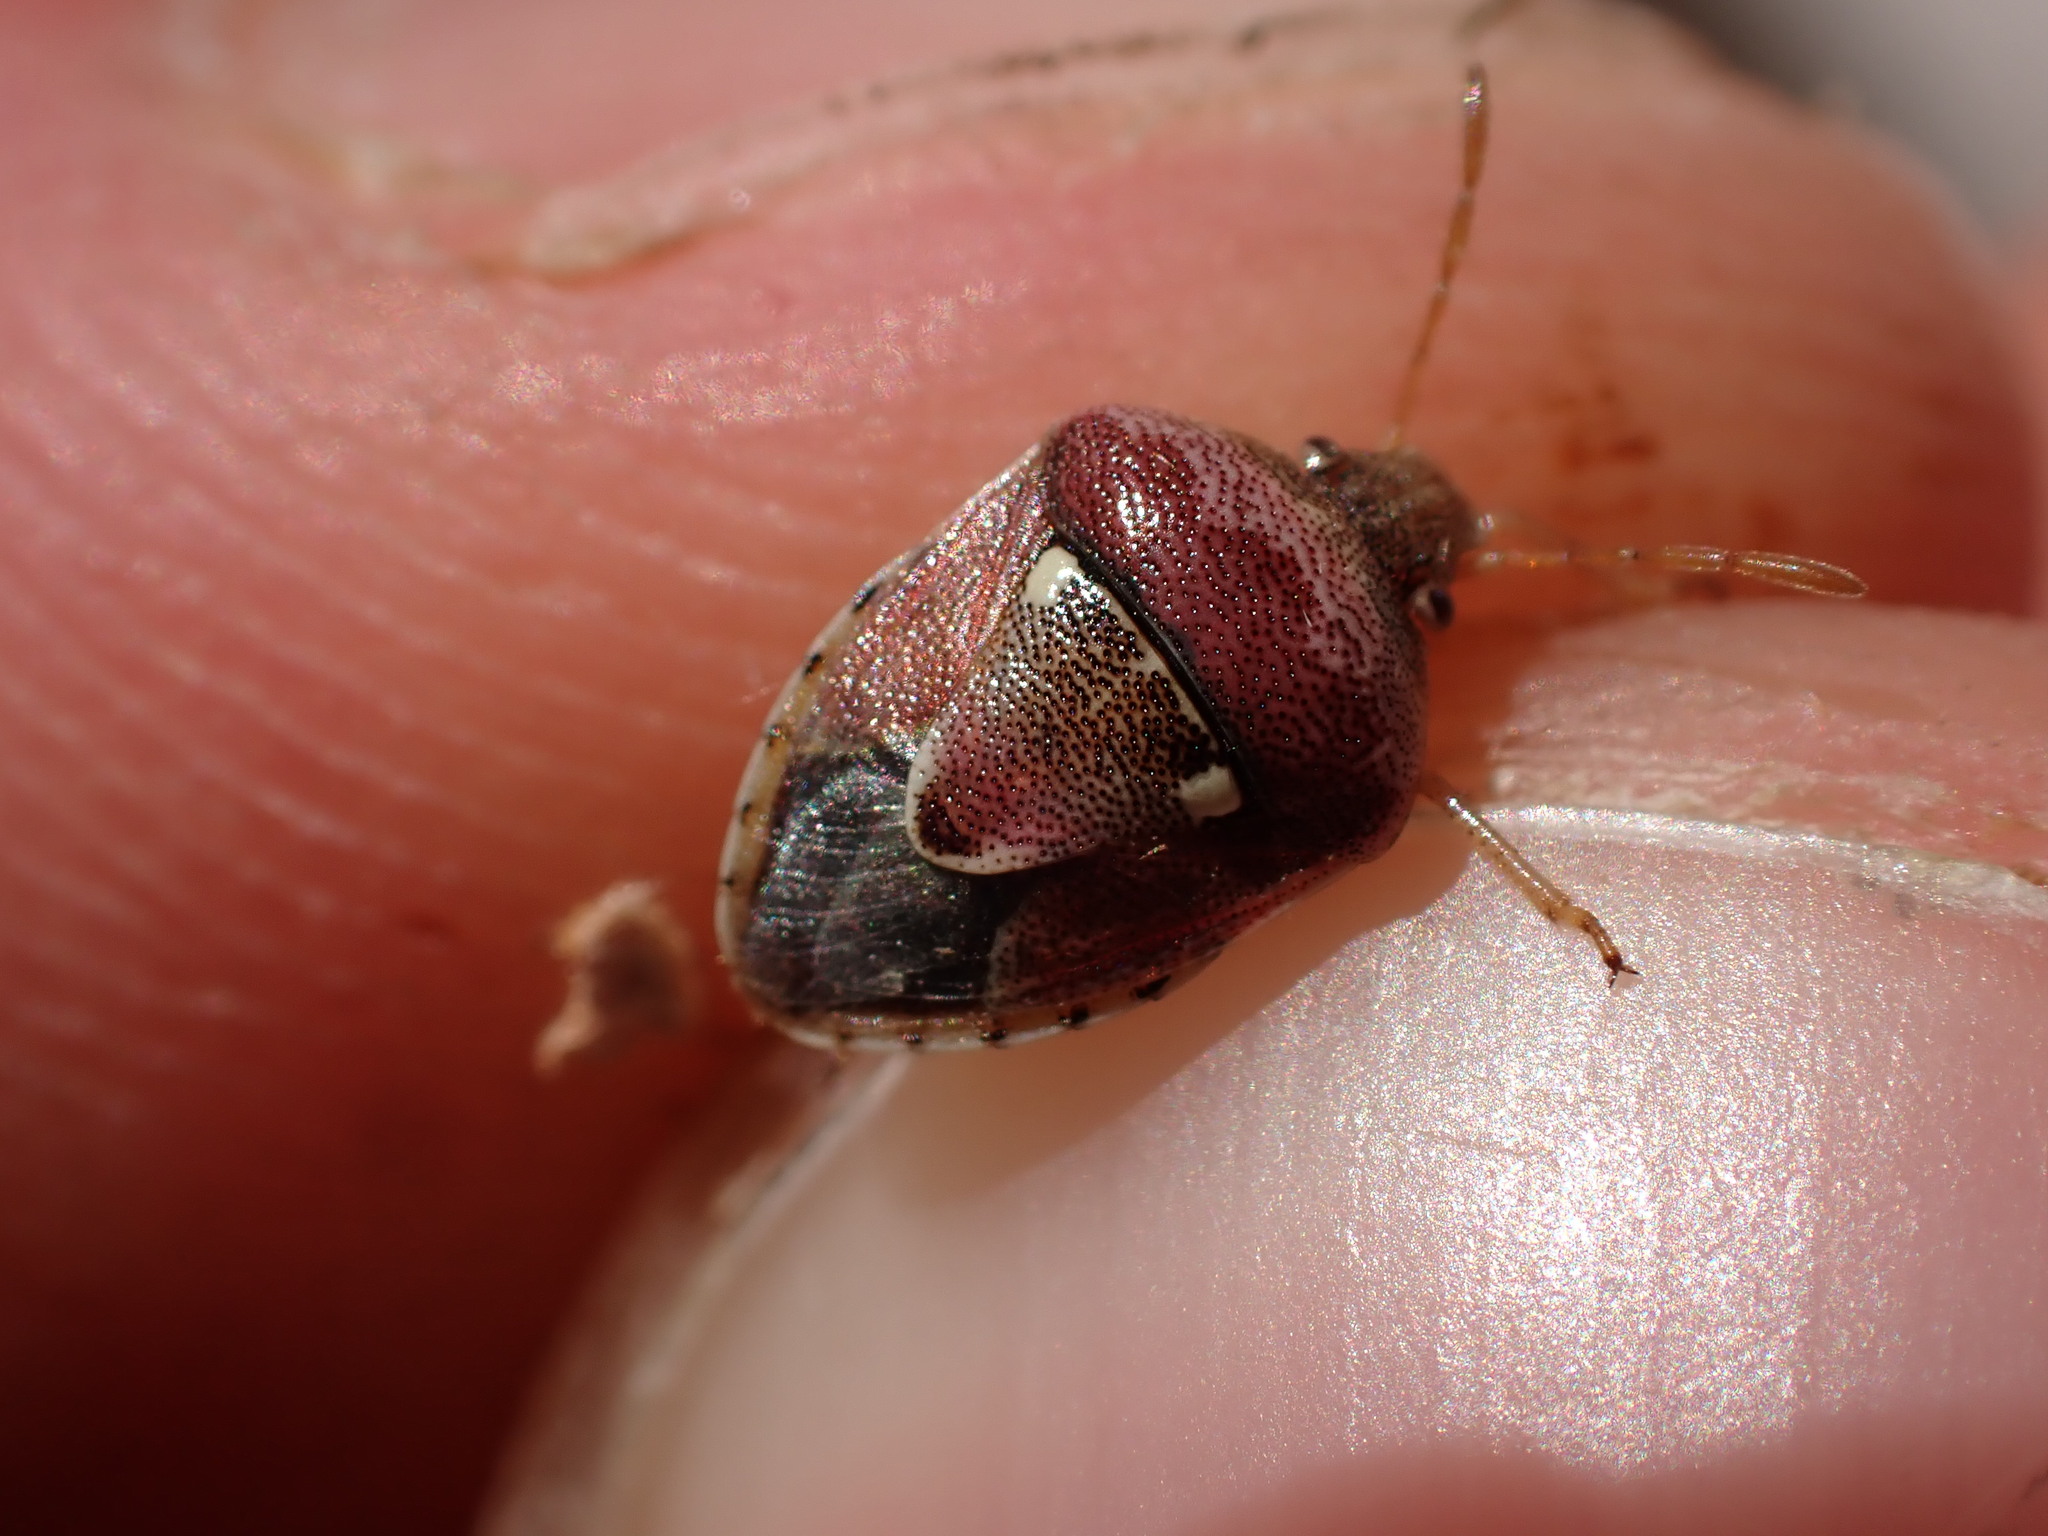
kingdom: Animalia
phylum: Arthropoda
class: Insecta
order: Hemiptera
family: Pentatomidae
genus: Stagonomus
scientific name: Stagonomus bipunctatus
